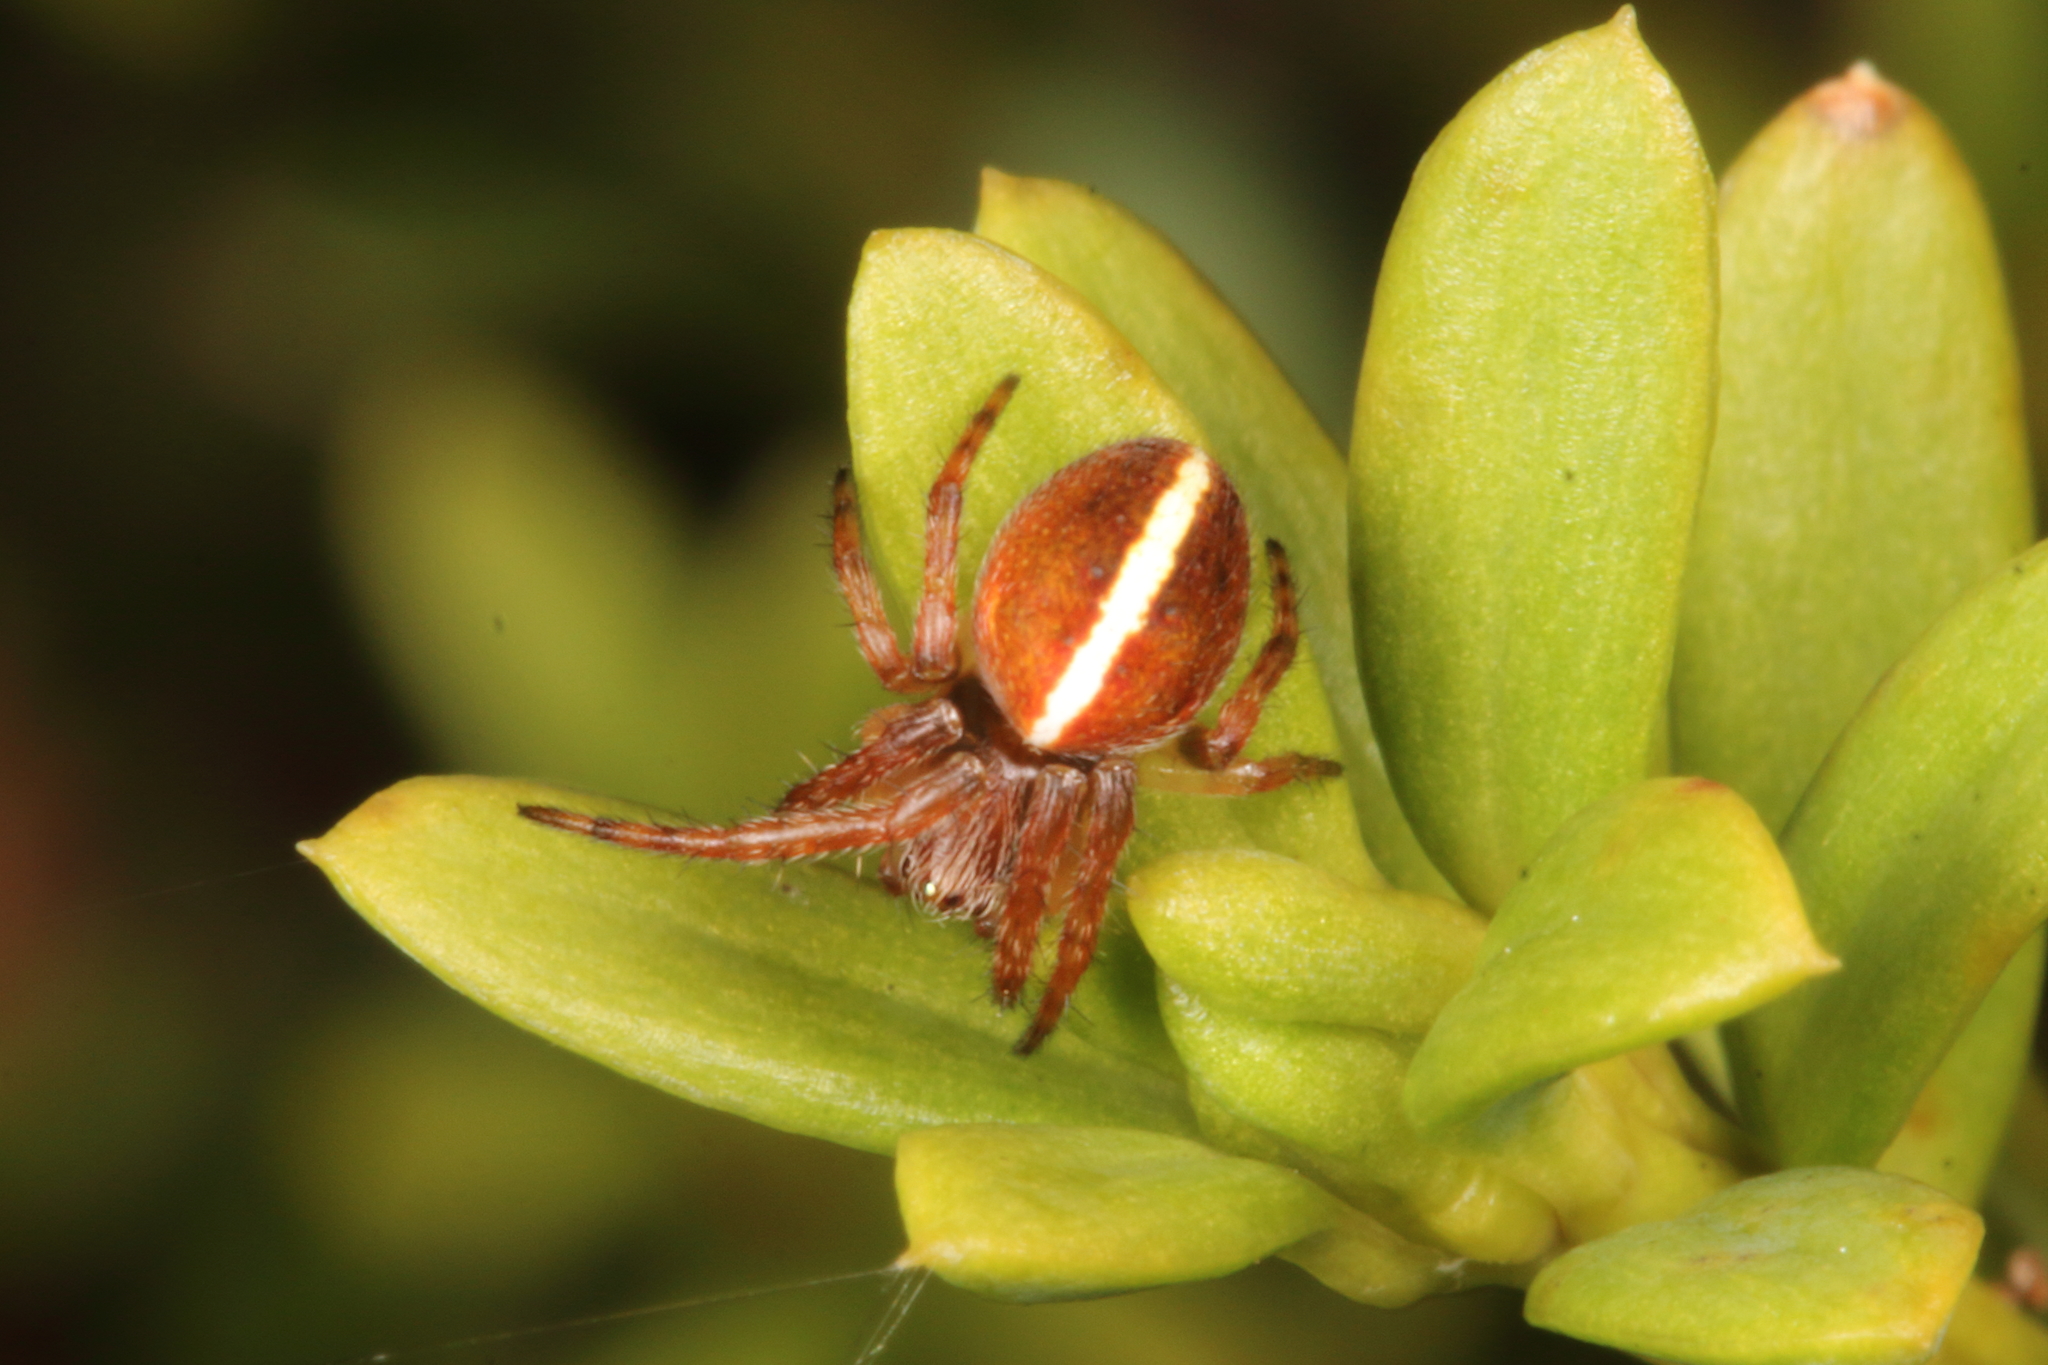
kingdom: Animalia
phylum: Arthropoda
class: Arachnida
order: Araneae
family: Araneidae
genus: Colaranea
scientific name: Colaranea brunnea
